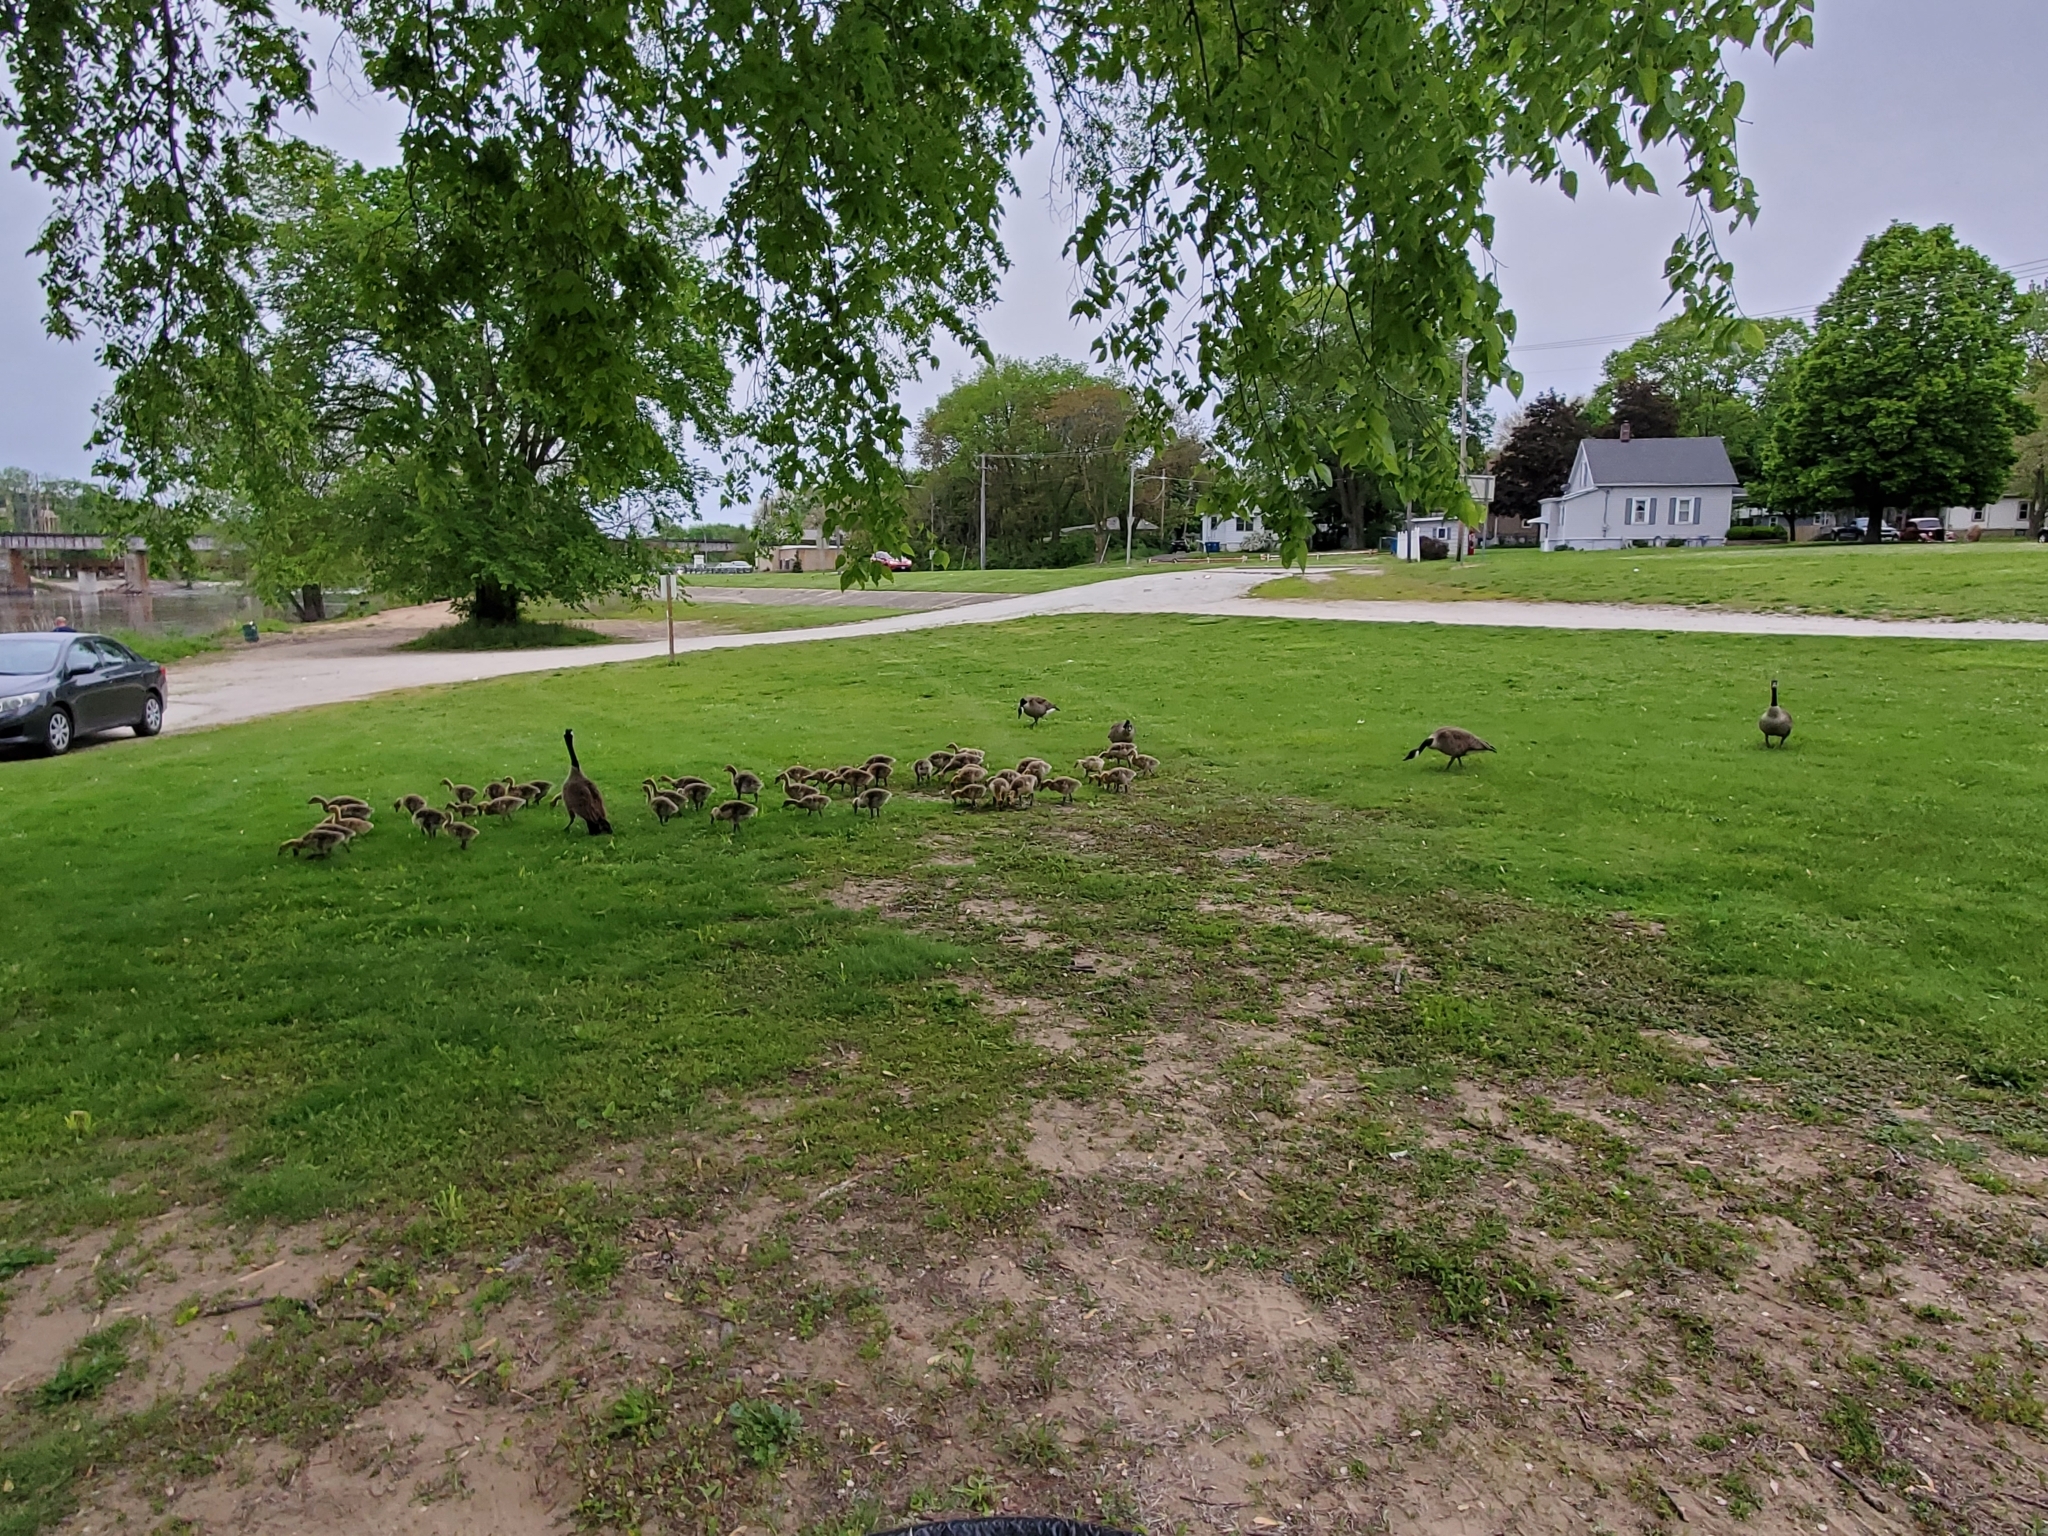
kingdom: Animalia
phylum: Chordata
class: Aves
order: Anseriformes
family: Anatidae
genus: Branta
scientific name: Branta canadensis
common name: Canada goose
